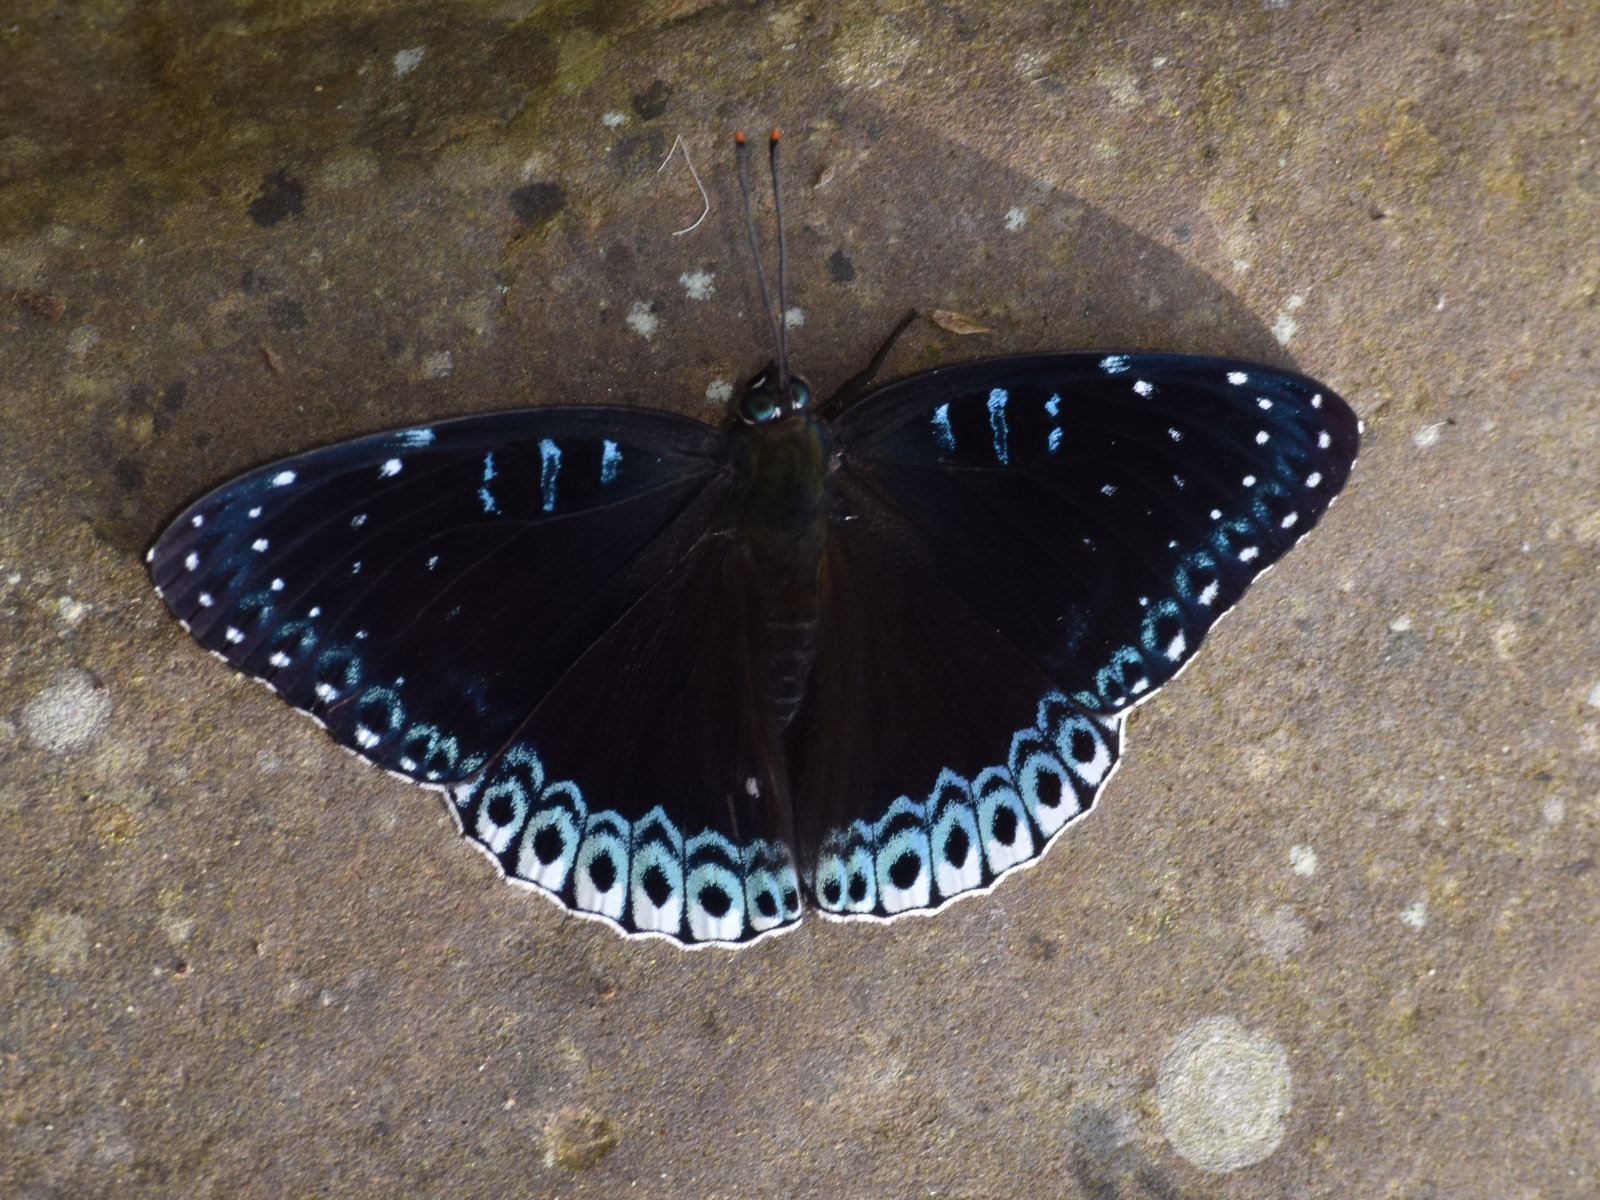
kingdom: Animalia
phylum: Arthropoda
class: Insecta
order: Lepidoptera
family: Nymphalidae
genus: Stibochiona
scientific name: Stibochiona nicea
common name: Popinjay
